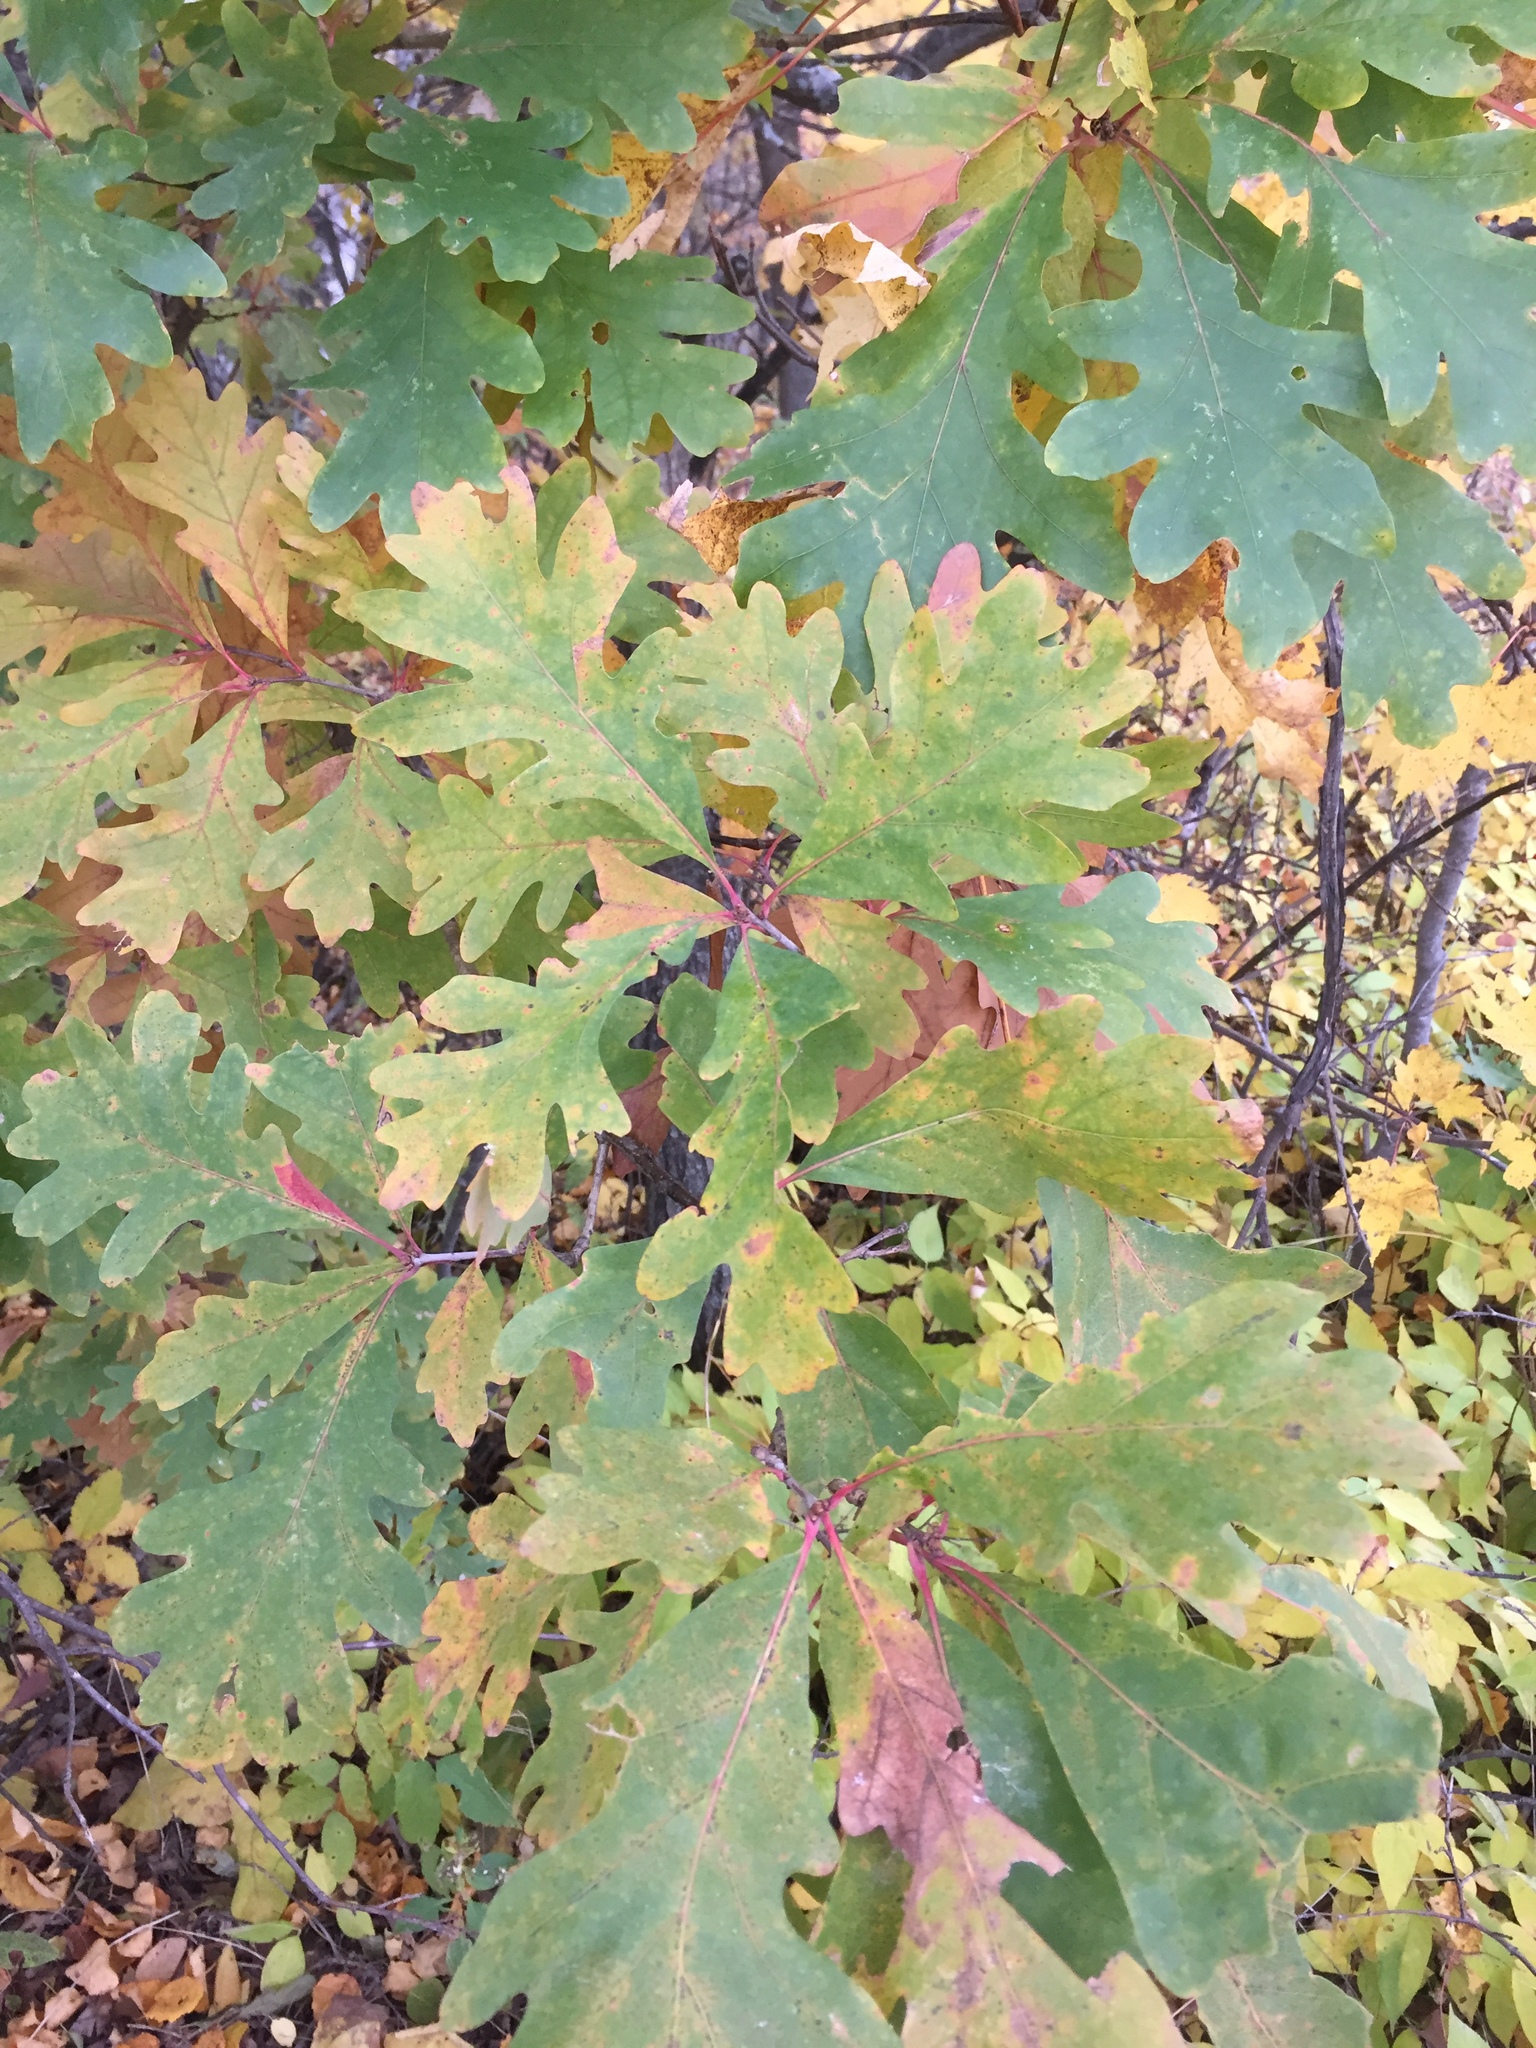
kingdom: Plantae
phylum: Tracheophyta
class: Magnoliopsida
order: Fagales
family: Fagaceae
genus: Quercus
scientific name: Quercus alba
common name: White oak
